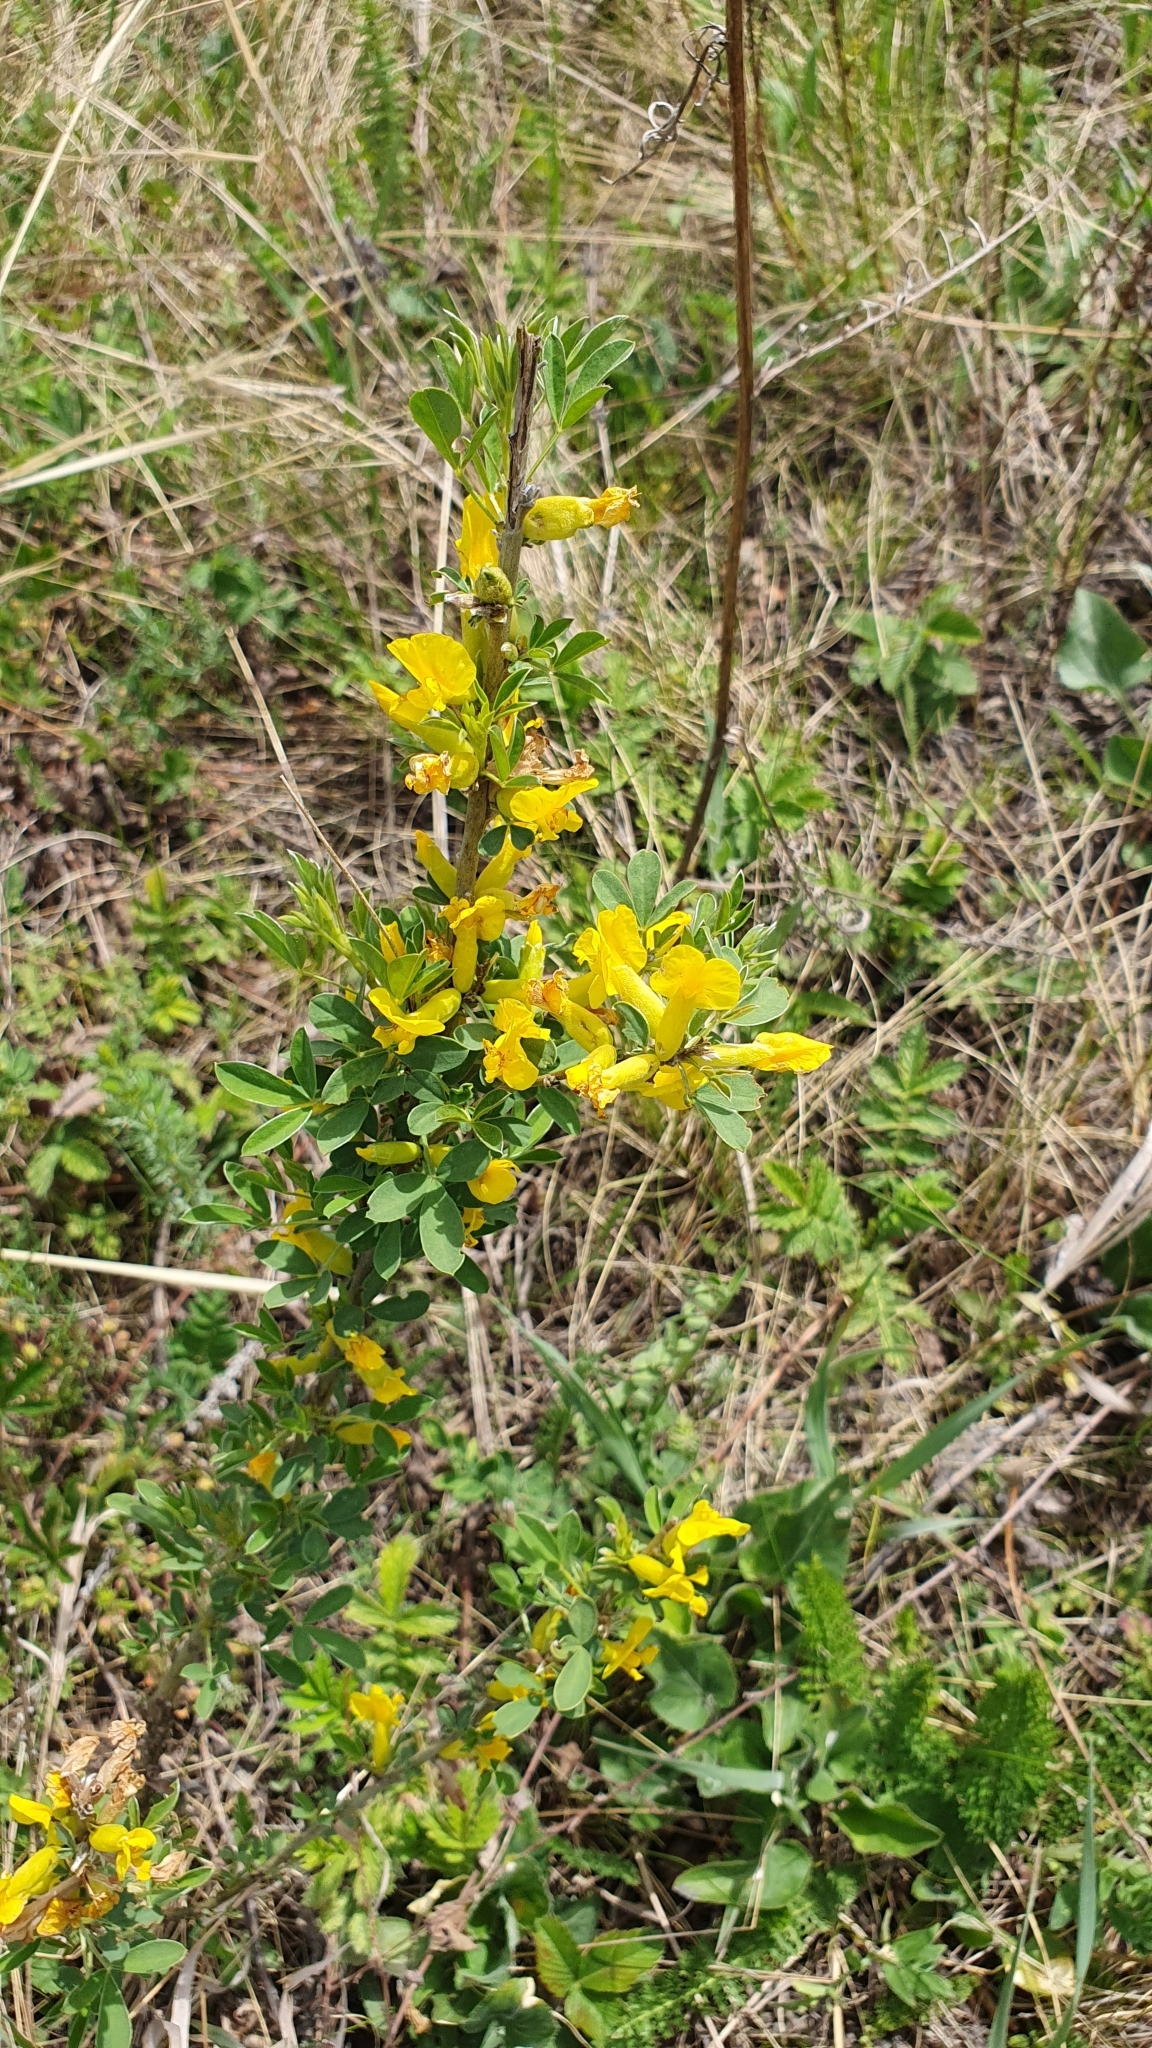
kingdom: Plantae
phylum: Tracheophyta
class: Magnoliopsida
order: Fabales
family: Fabaceae
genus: Chamaecytisus
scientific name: Chamaecytisus ruthenicus
